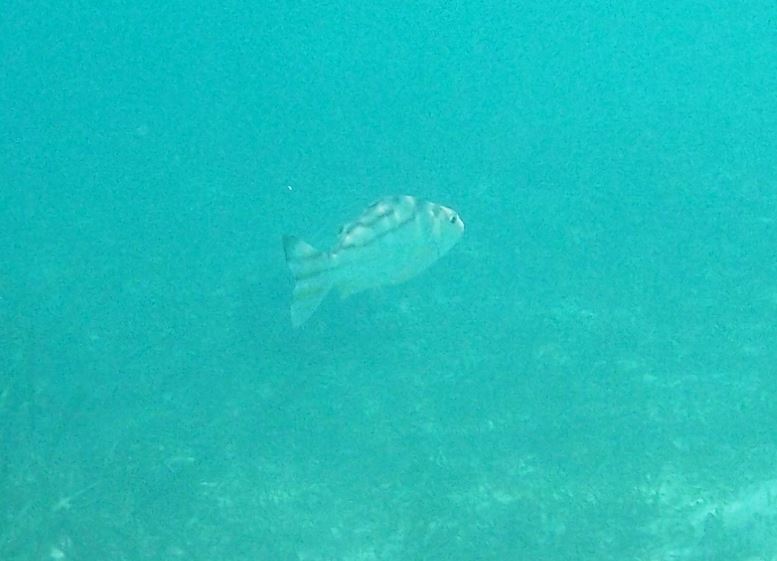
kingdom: Animalia
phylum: Chordata
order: Perciformes
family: Terapontidae
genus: Terapon
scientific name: Terapon jarbua
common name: Jarbua terapon
